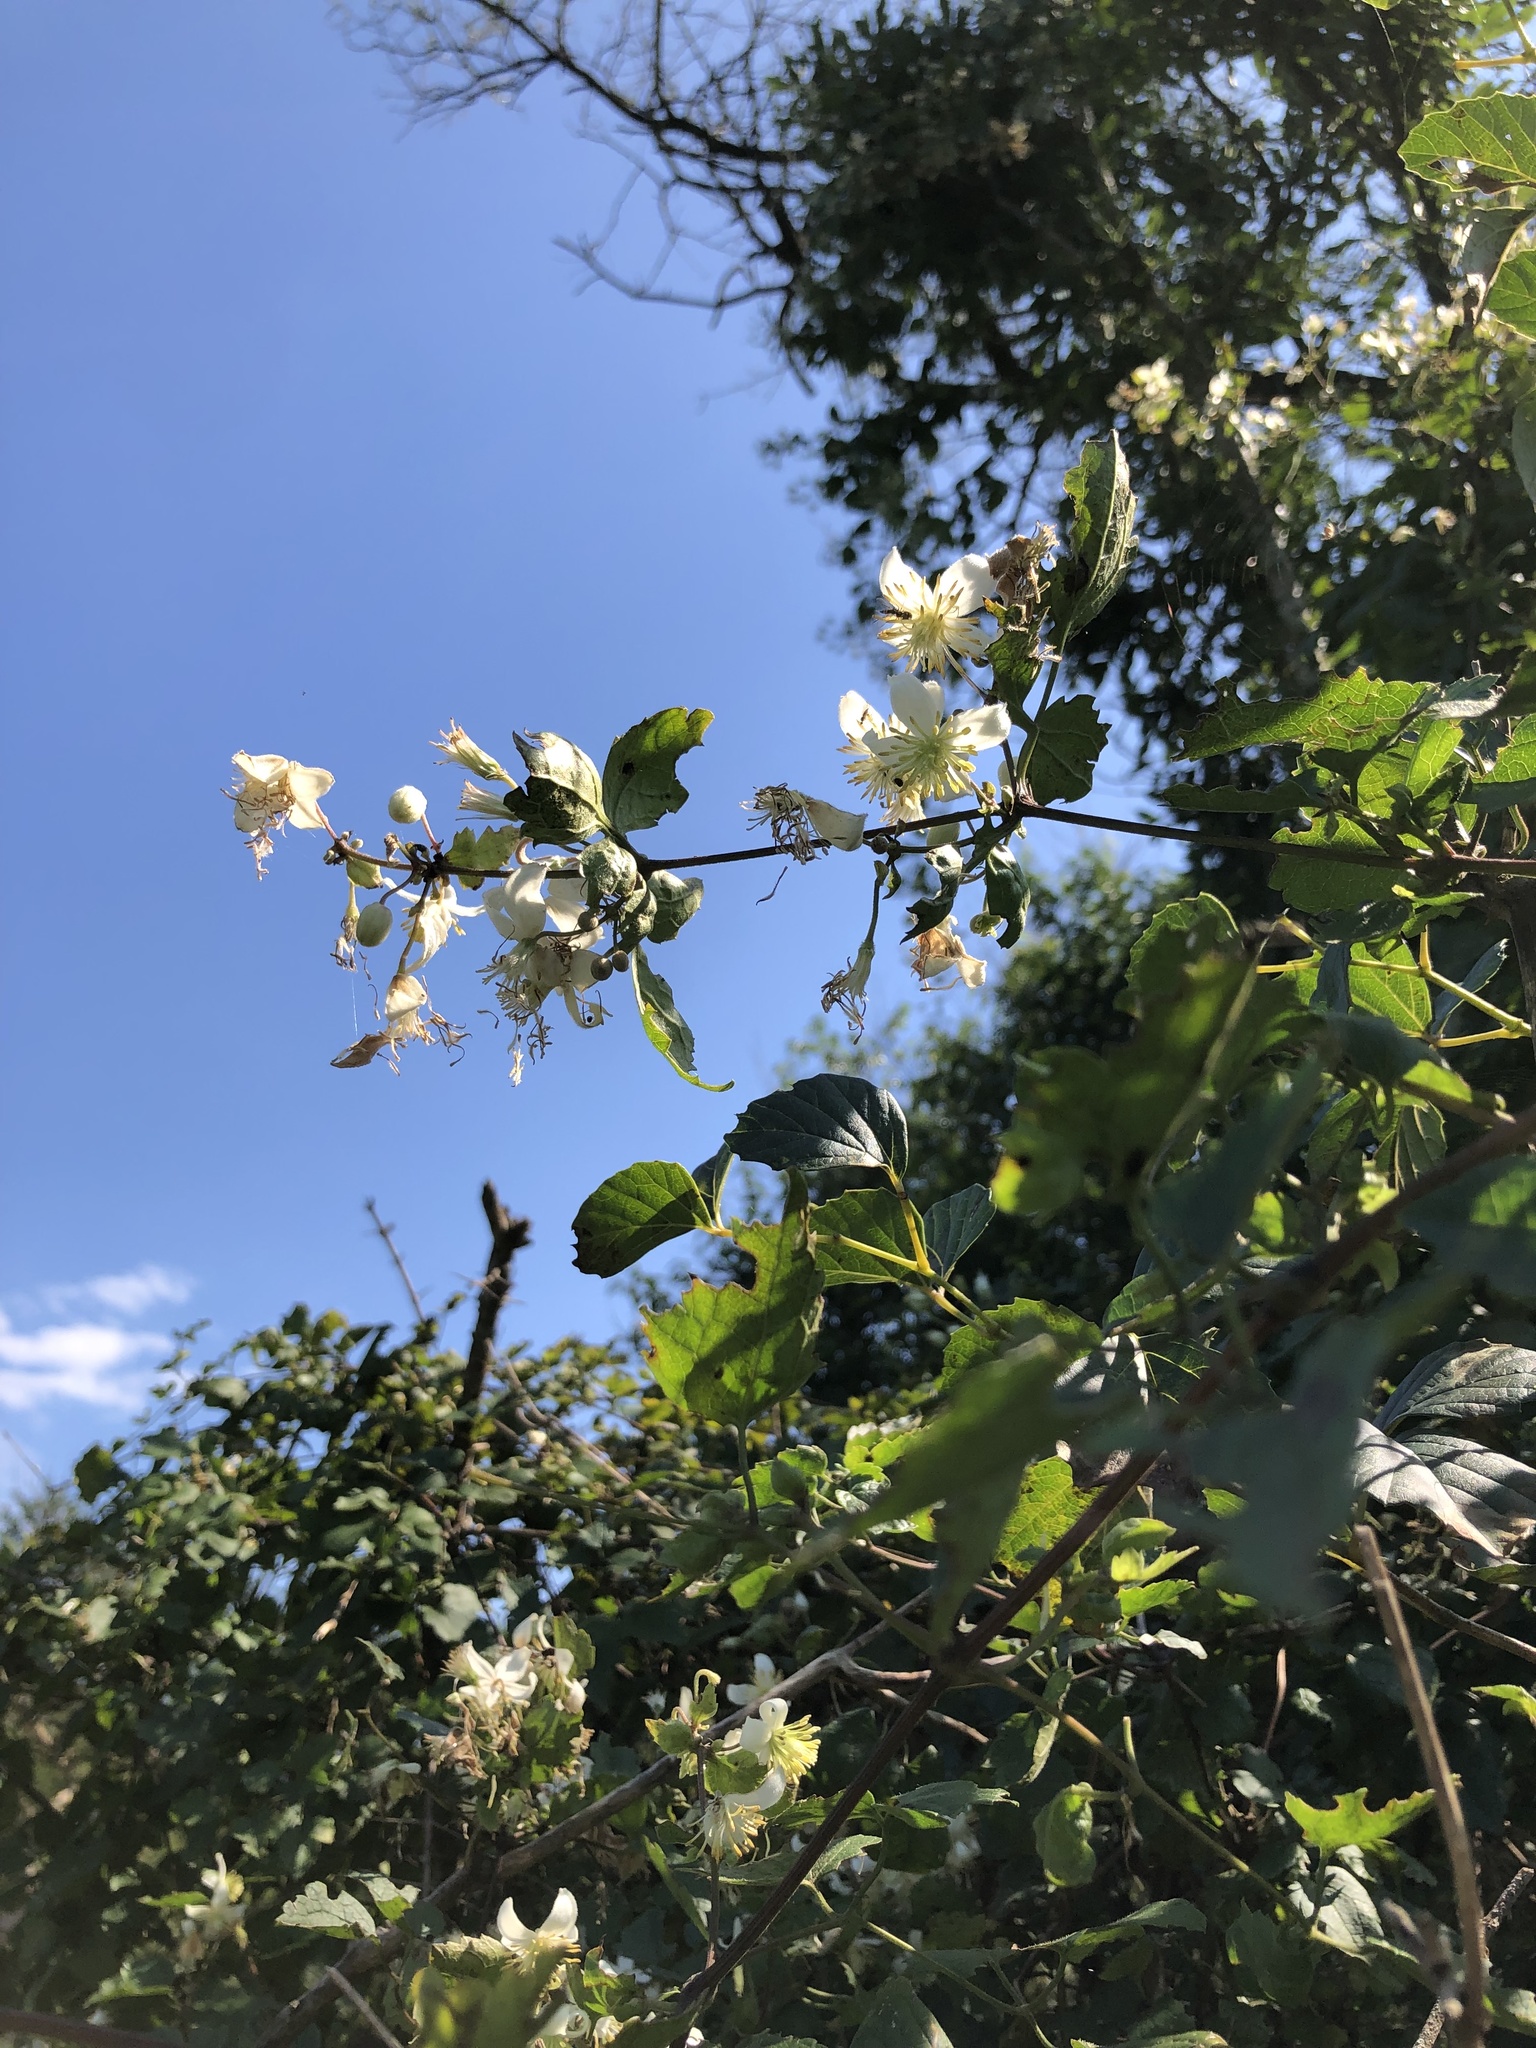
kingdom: Plantae
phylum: Tracheophyta
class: Magnoliopsida
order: Ranunculales
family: Ranunculaceae
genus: Clematis
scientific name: Clematis brachiata
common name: Traveler's-joy
